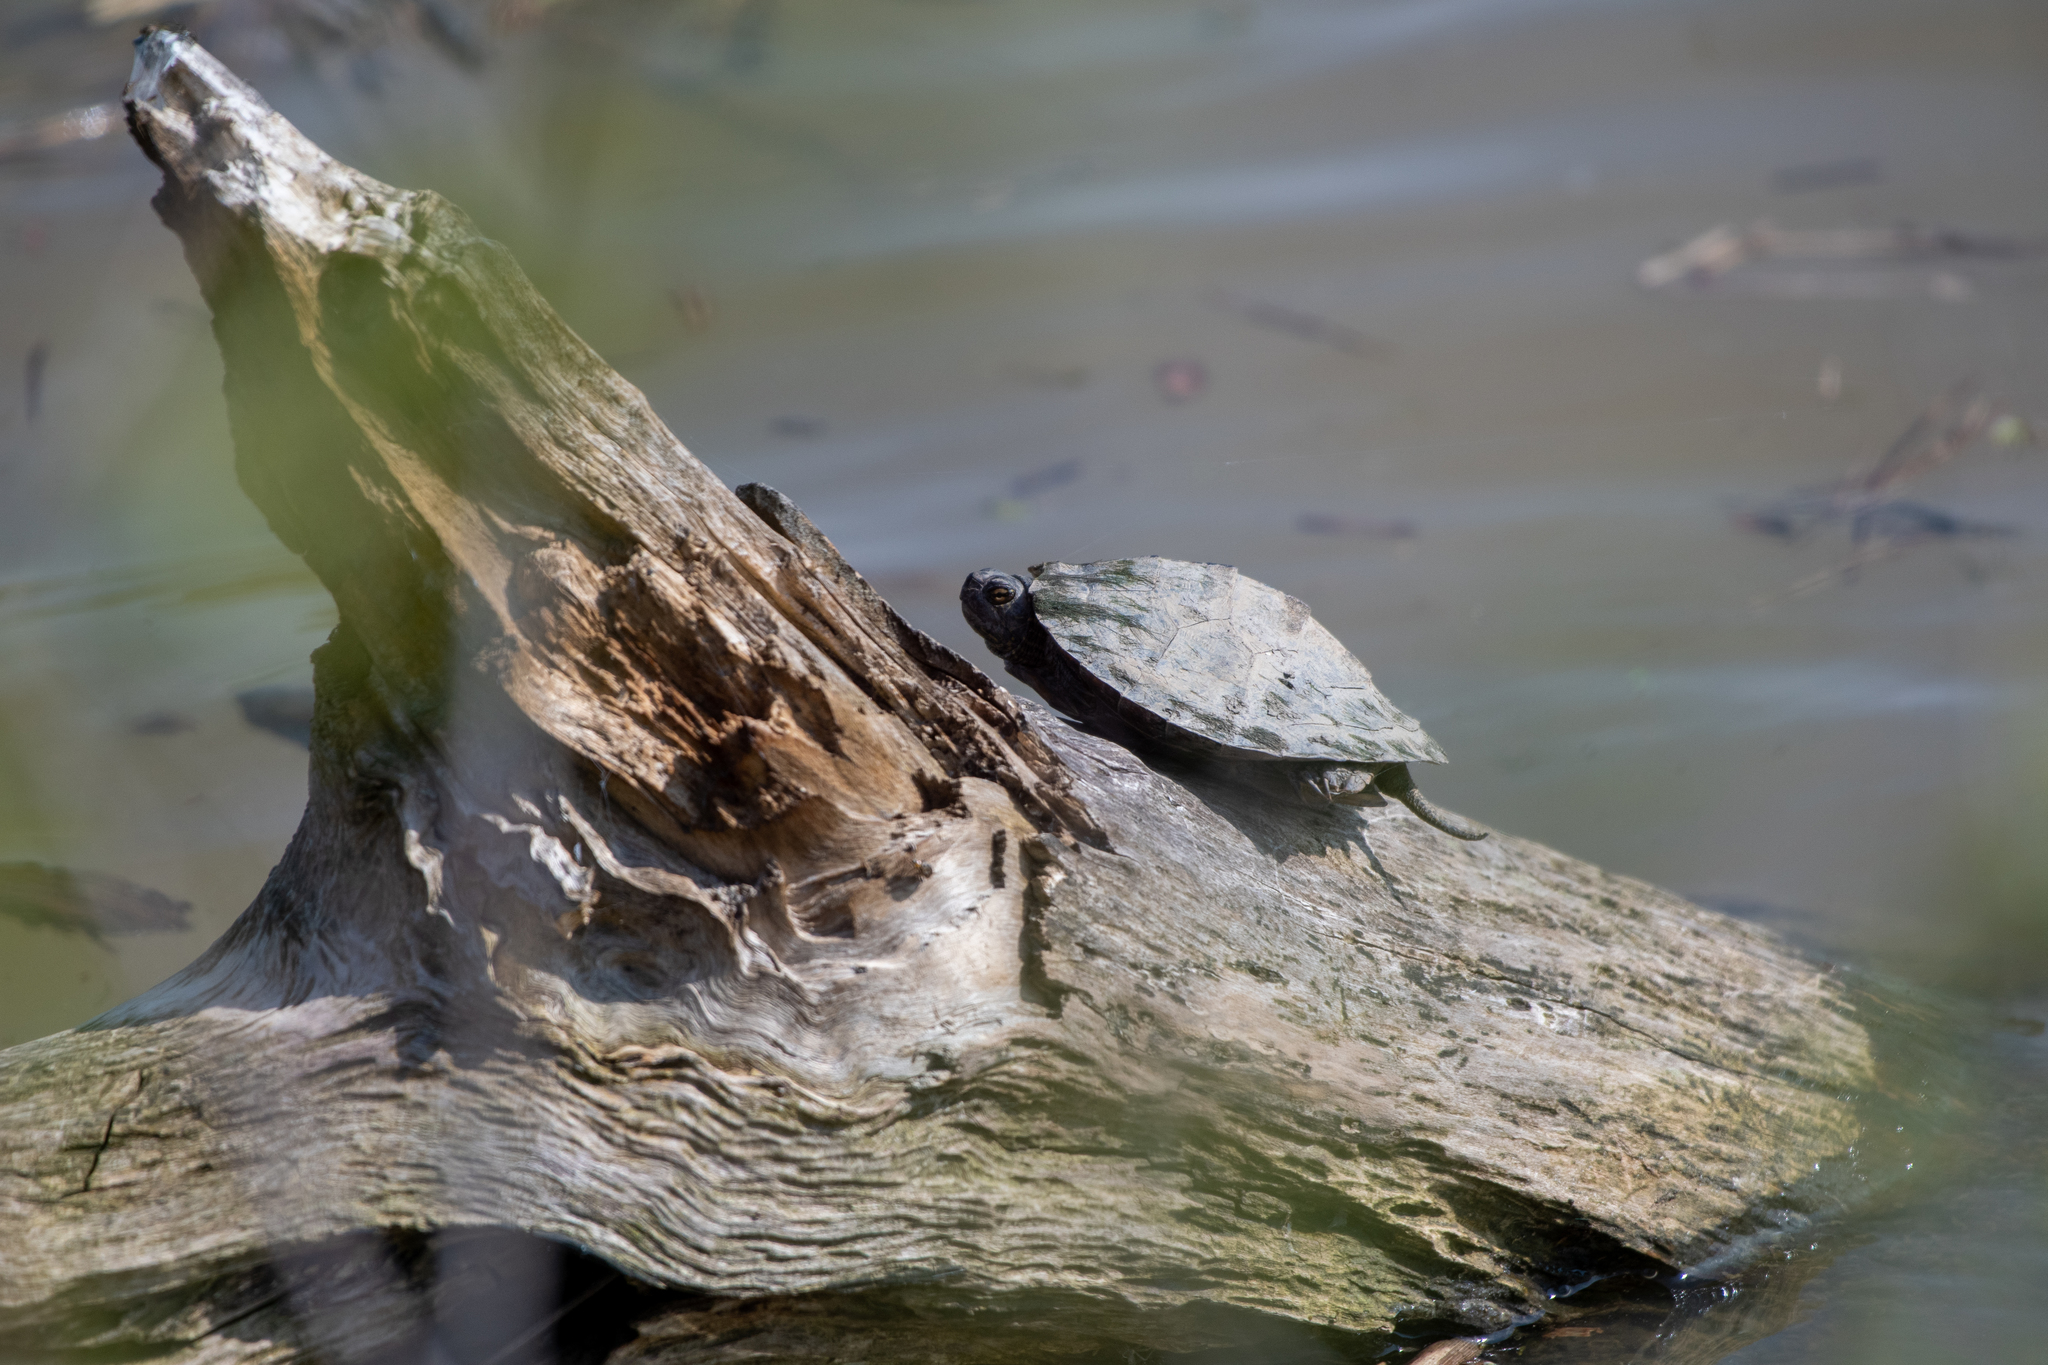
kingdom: Animalia
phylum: Chordata
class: Testudines
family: Emydidae
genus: Graptemys
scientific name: Graptemys geographica
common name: Common map turtle
